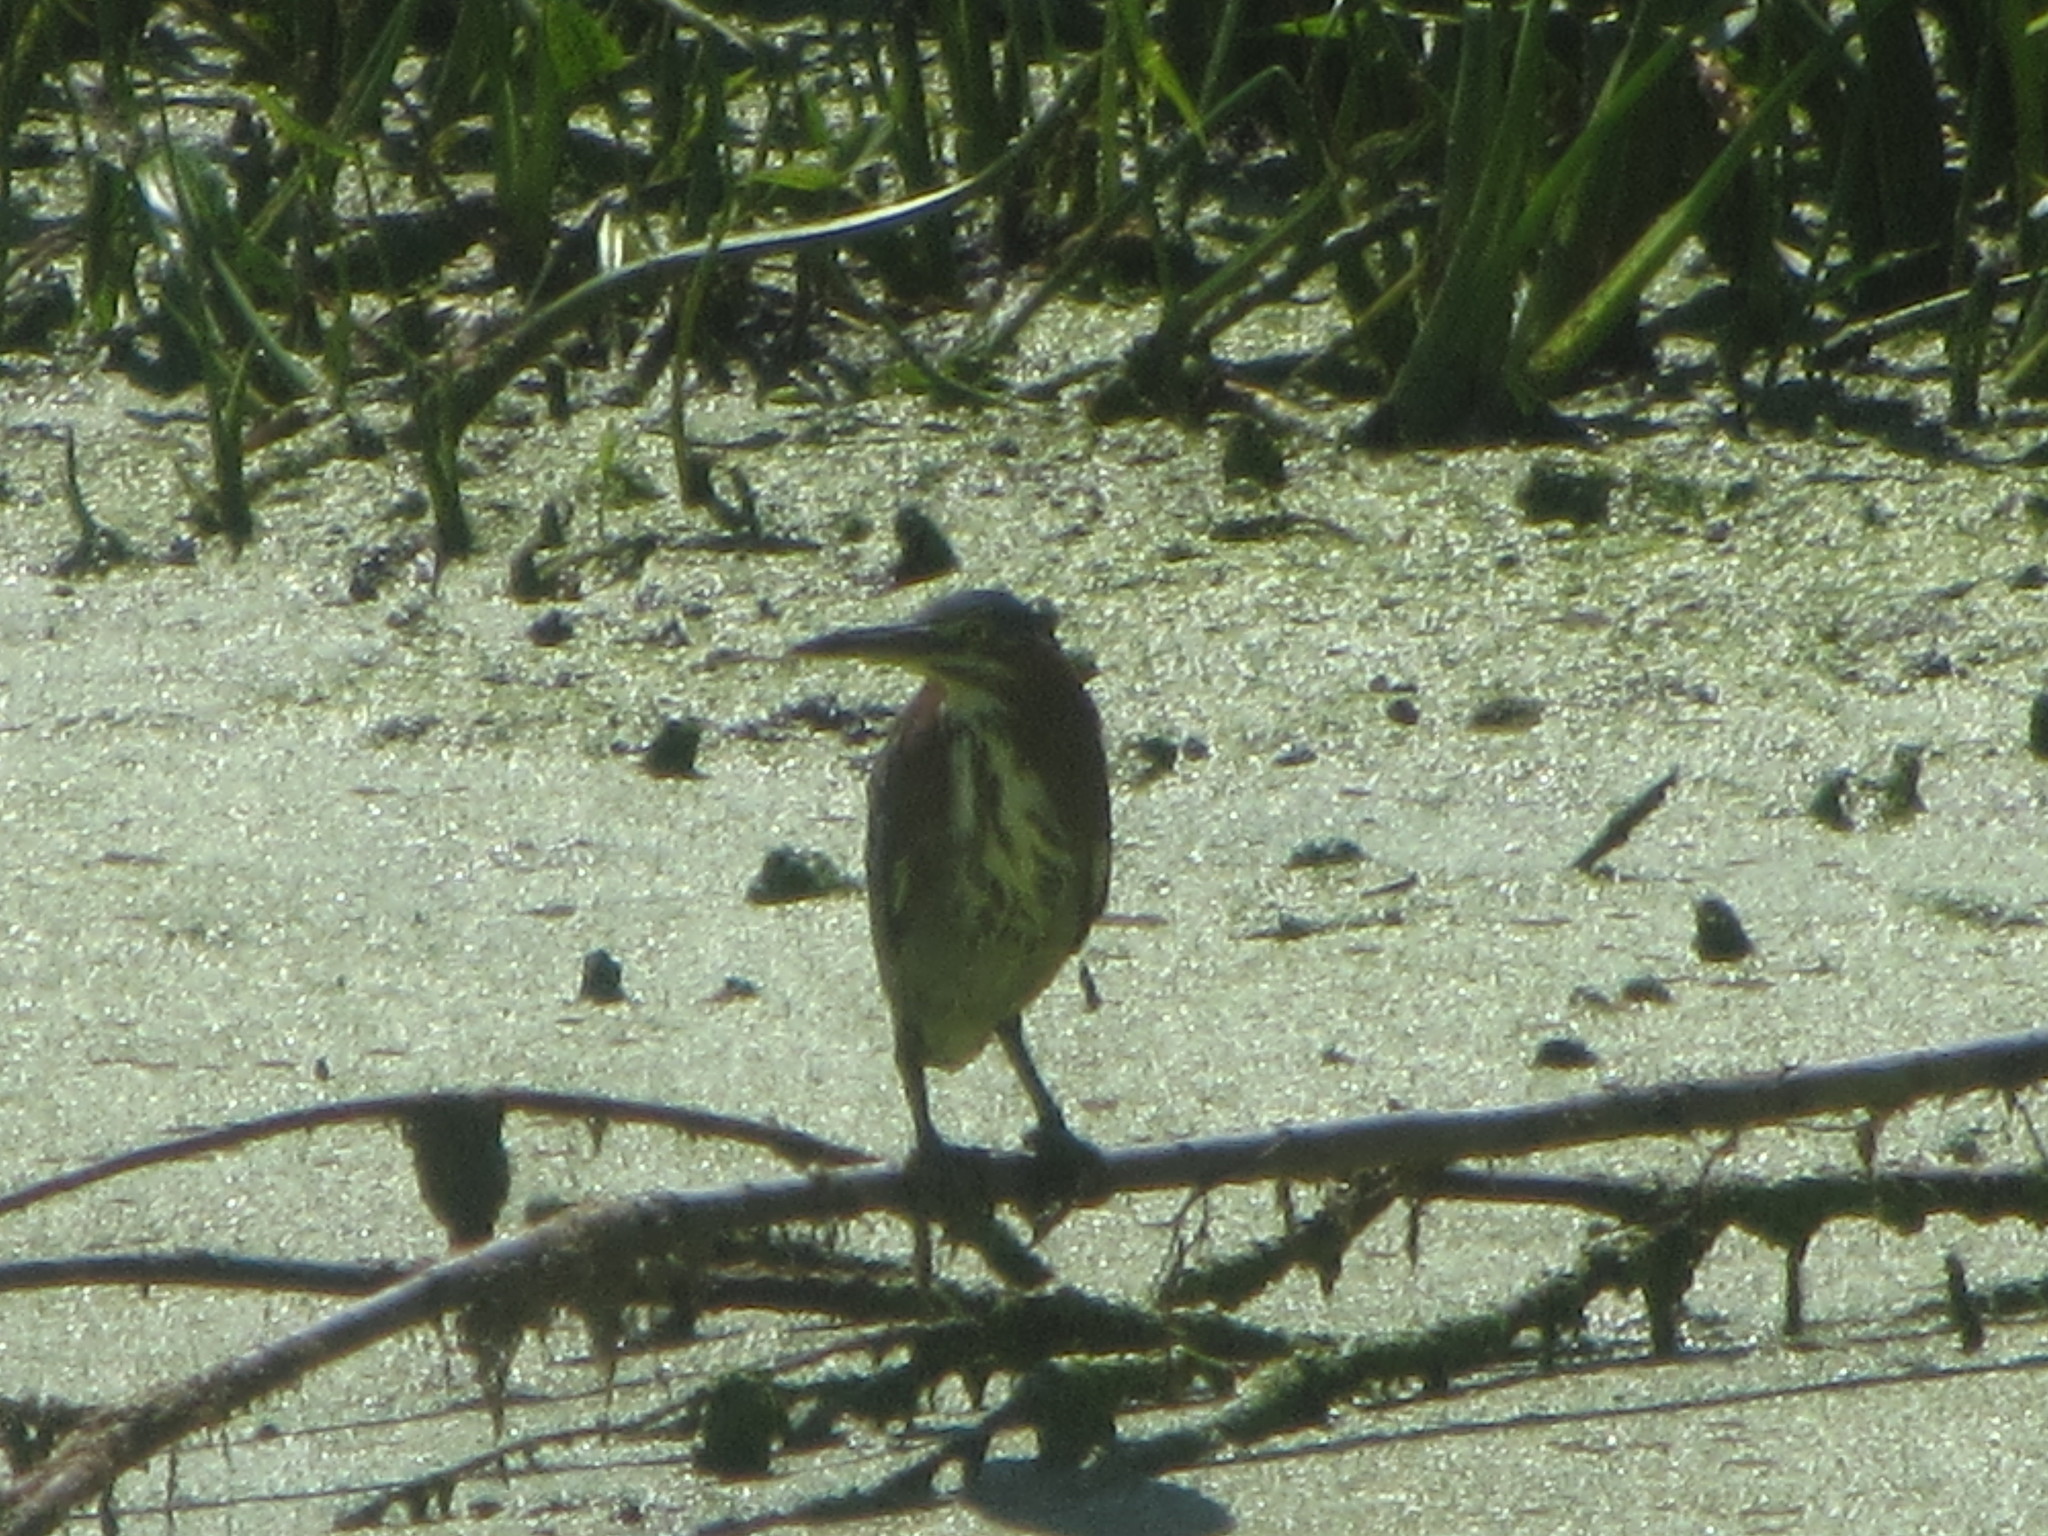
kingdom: Animalia
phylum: Chordata
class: Aves
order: Pelecaniformes
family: Ardeidae
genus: Butorides
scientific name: Butorides virescens
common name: Green heron
